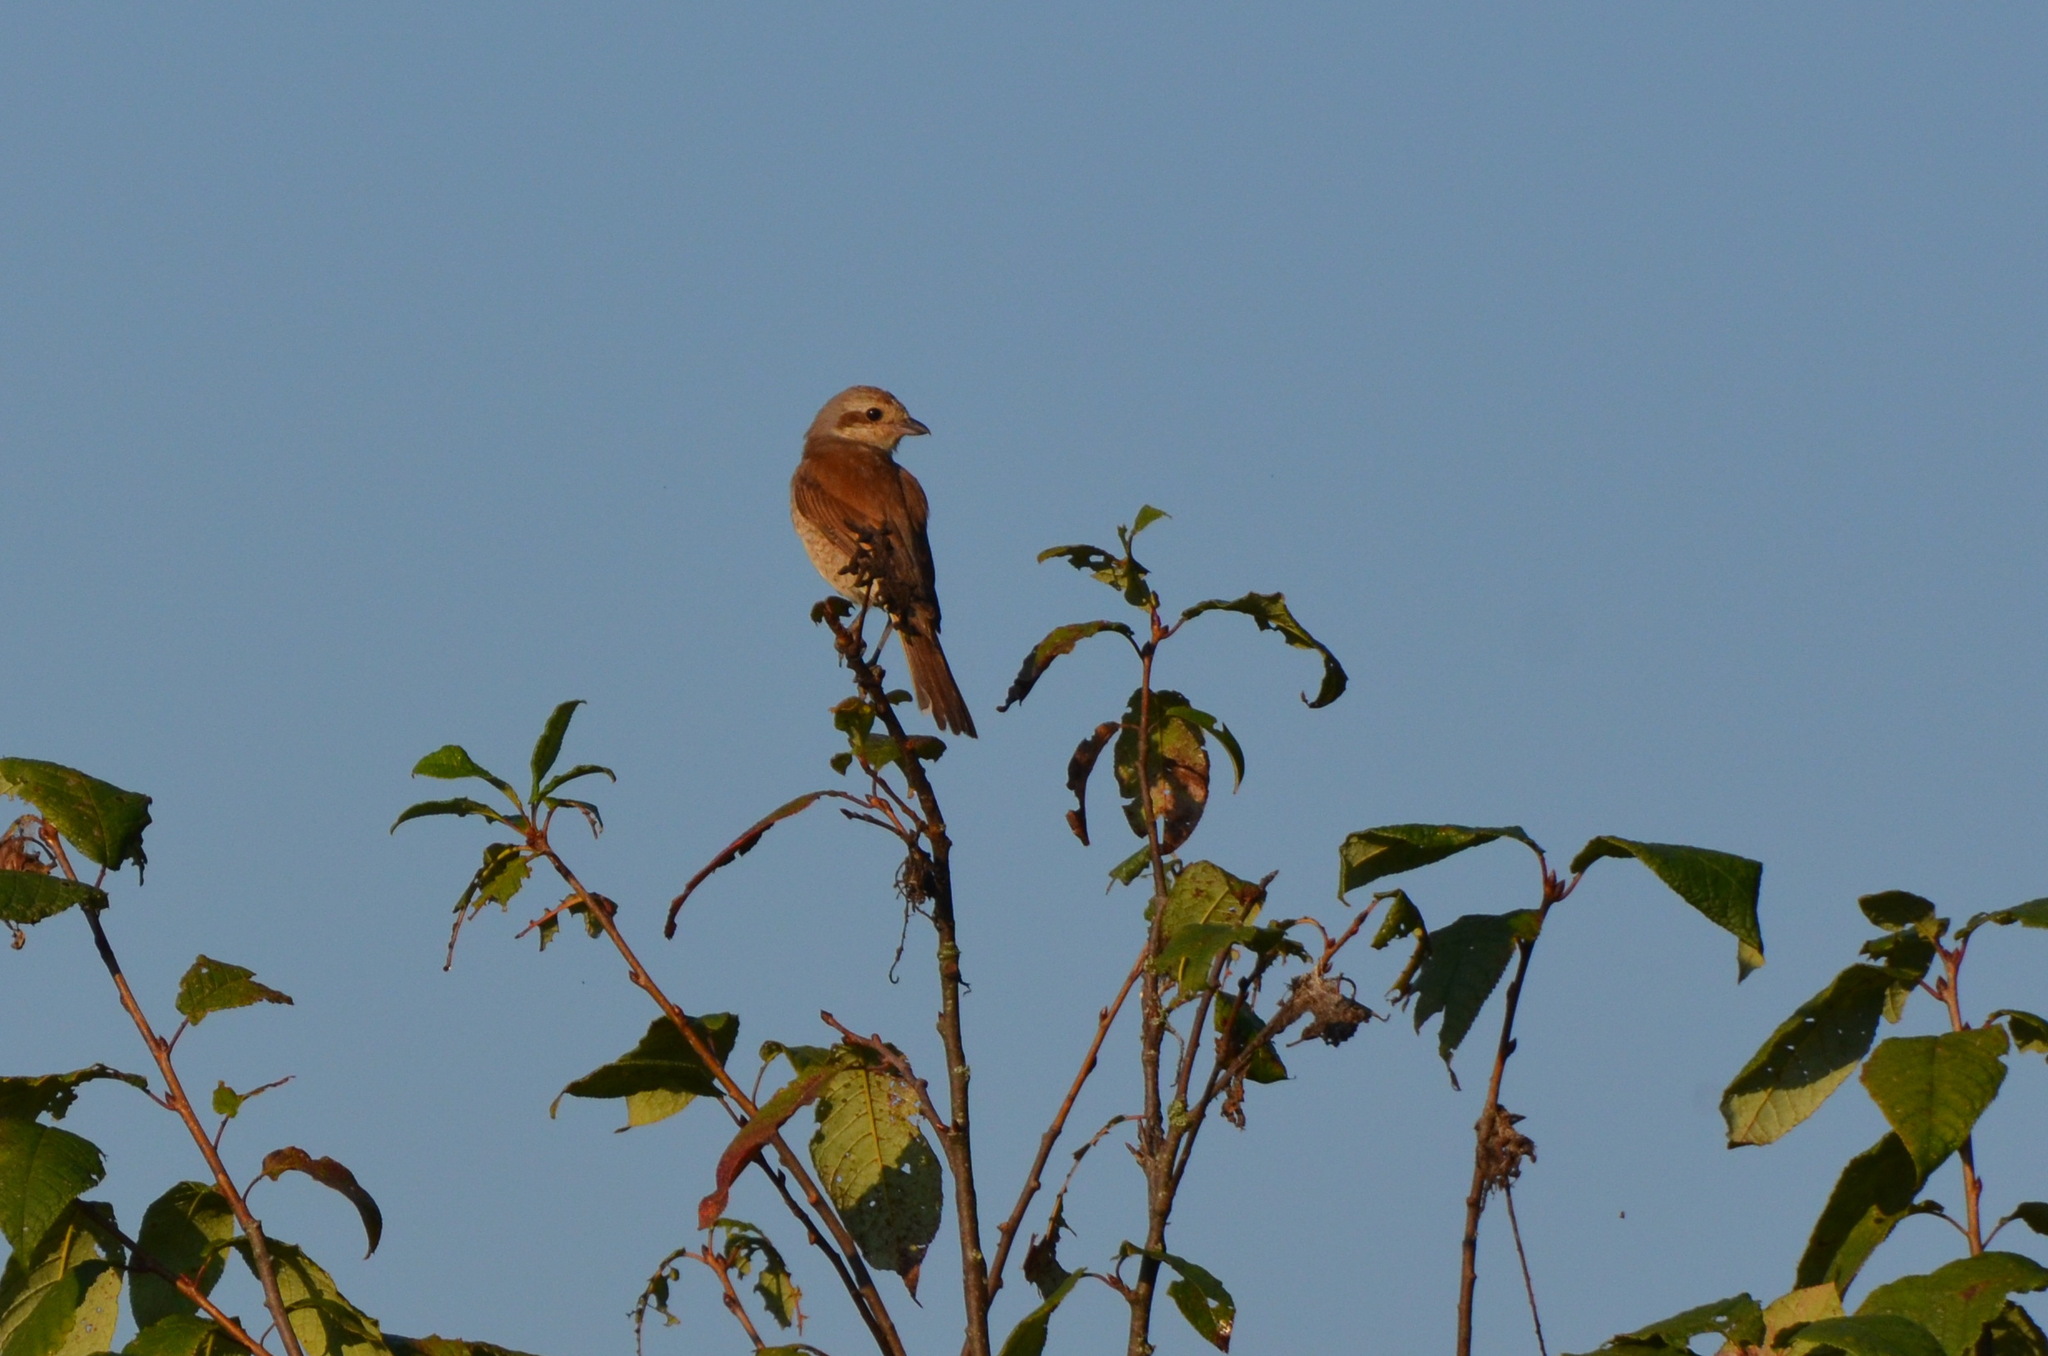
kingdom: Animalia
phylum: Chordata
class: Aves
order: Passeriformes
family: Laniidae
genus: Lanius
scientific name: Lanius collurio
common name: Red-backed shrike
